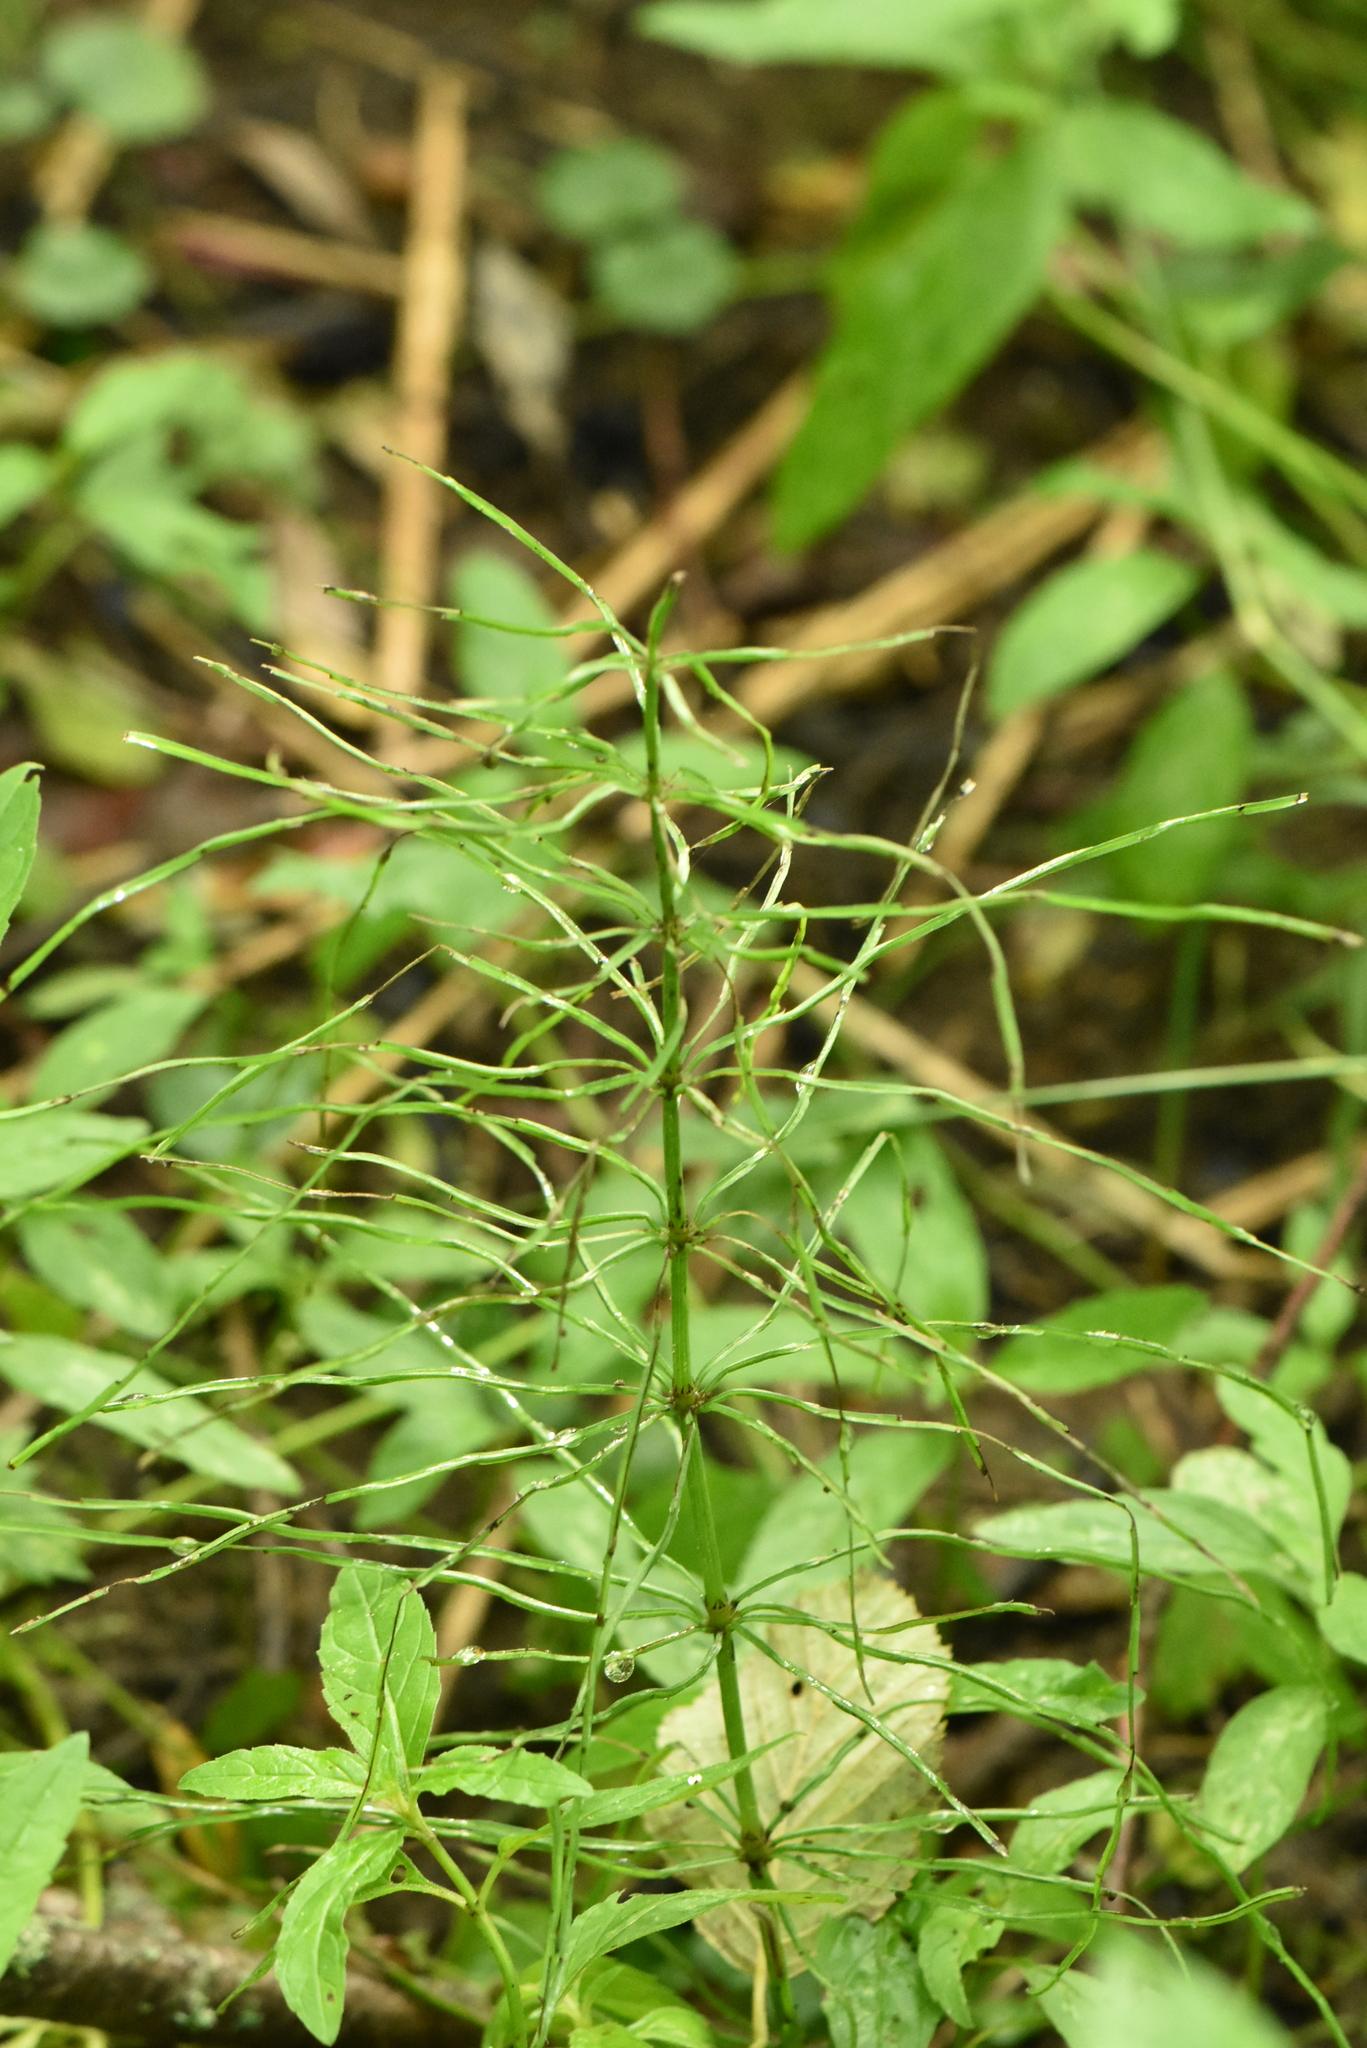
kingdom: Plantae
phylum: Tracheophyta
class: Polypodiopsida
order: Equisetales
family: Equisetaceae
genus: Equisetum
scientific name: Equisetum arvense
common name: Field horsetail
